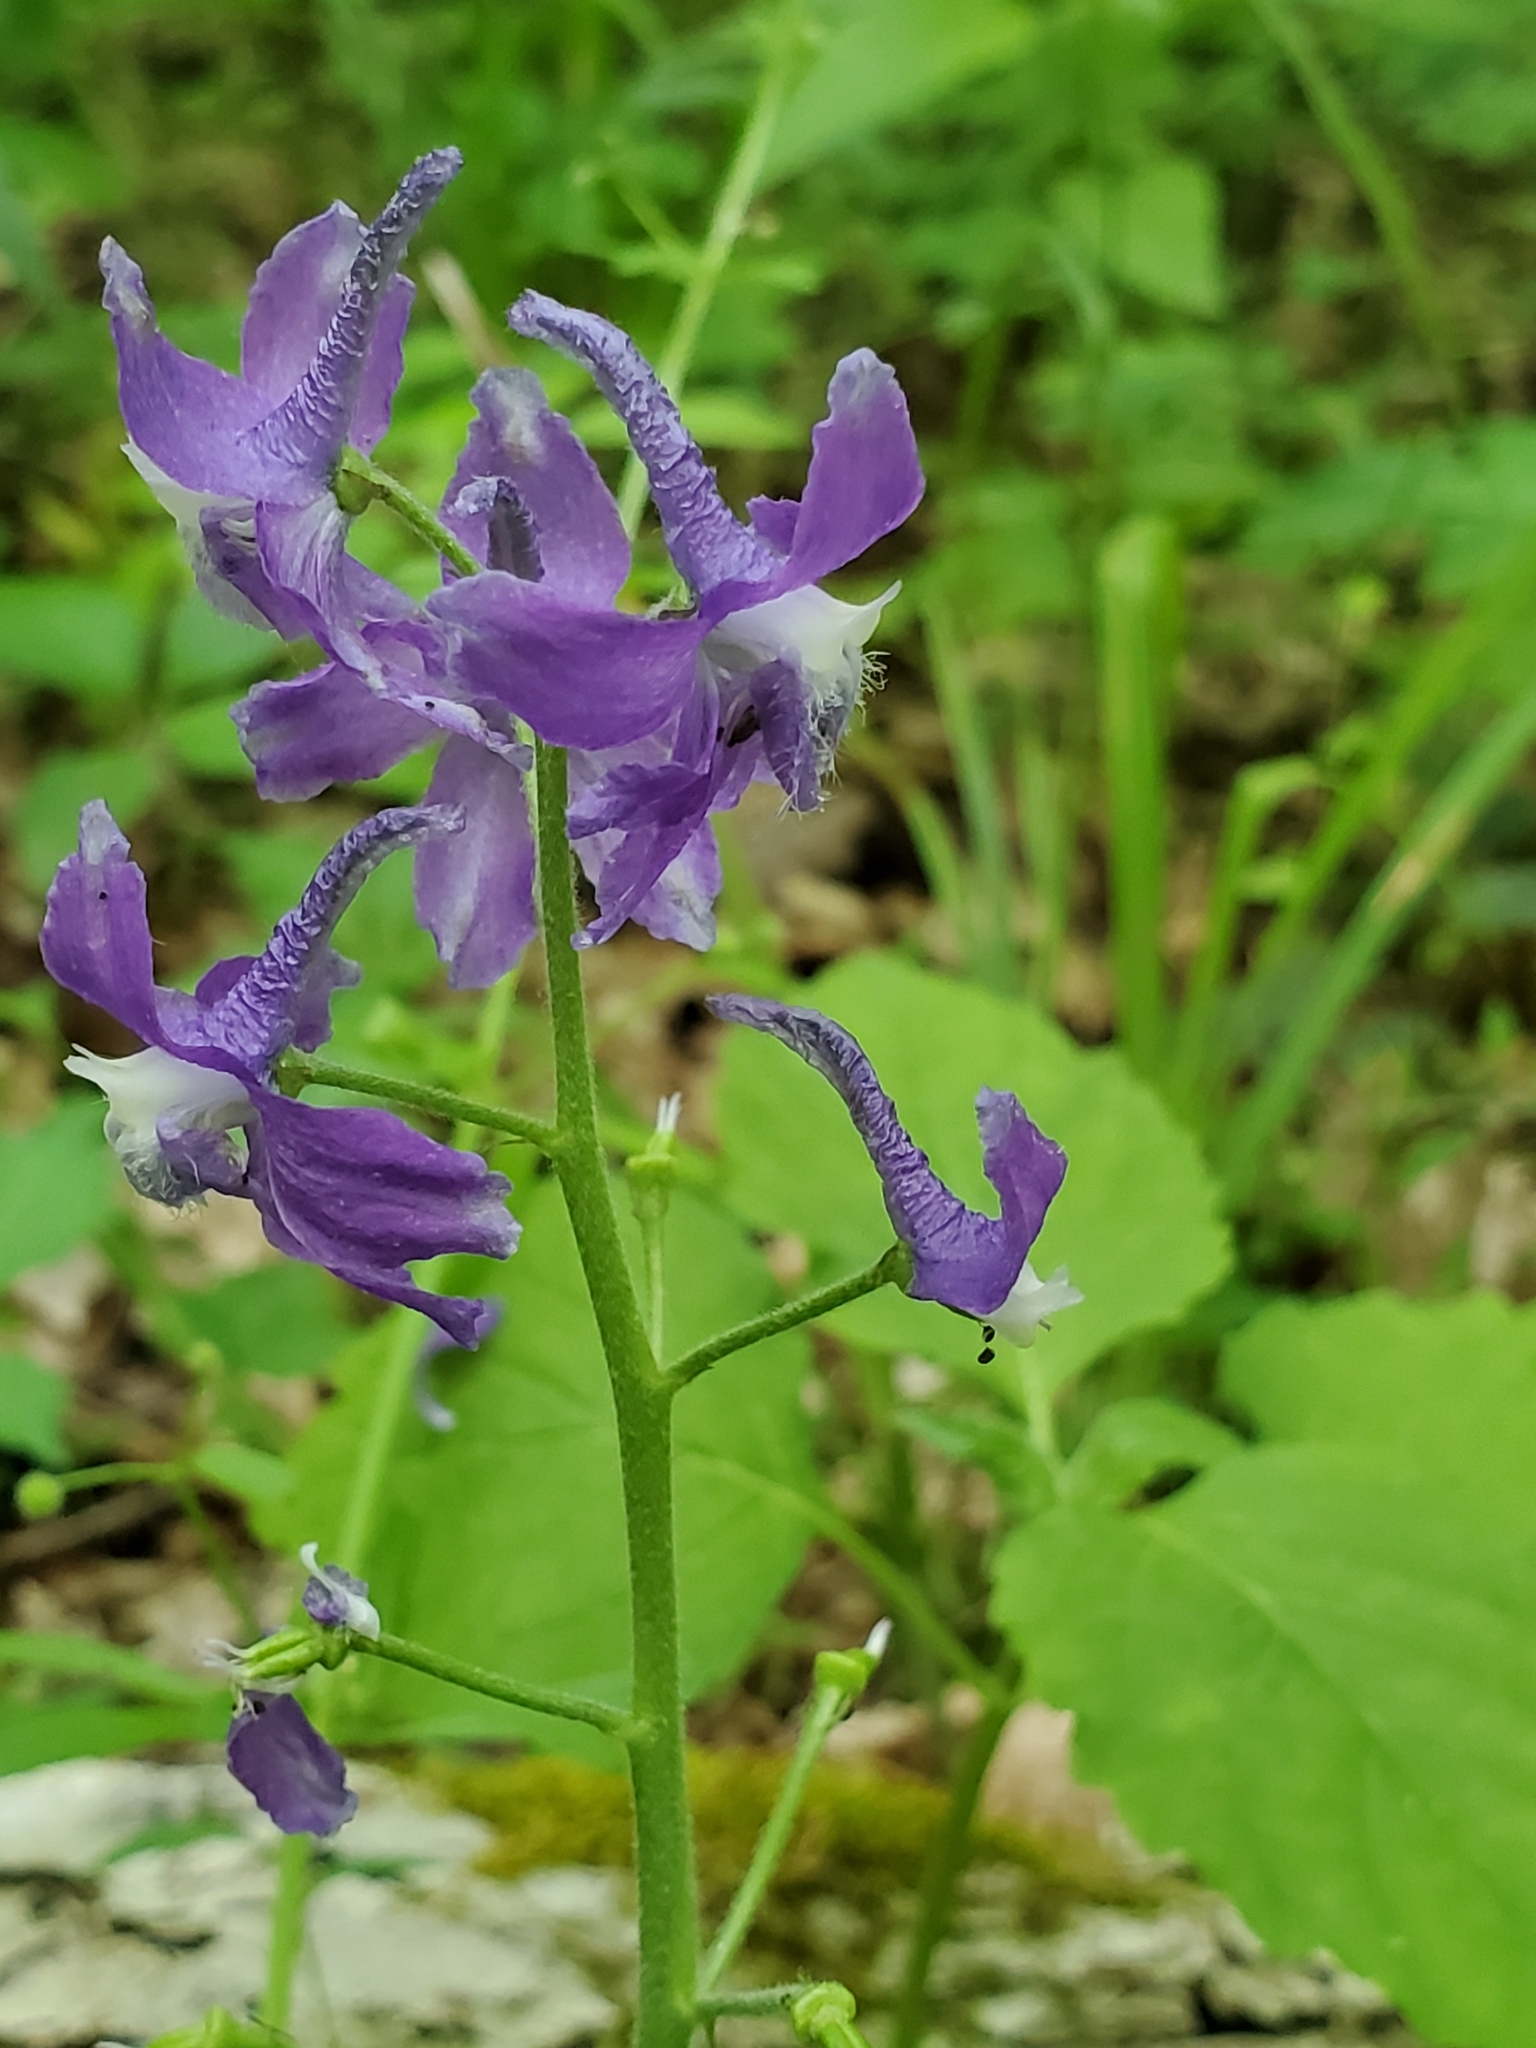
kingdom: Plantae
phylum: Tracheophyta
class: Magnoliopsida
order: Ranunculales
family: Ranunculaceae
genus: Delphinium
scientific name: Delphinium tricorne
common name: Dwarf larkspur
